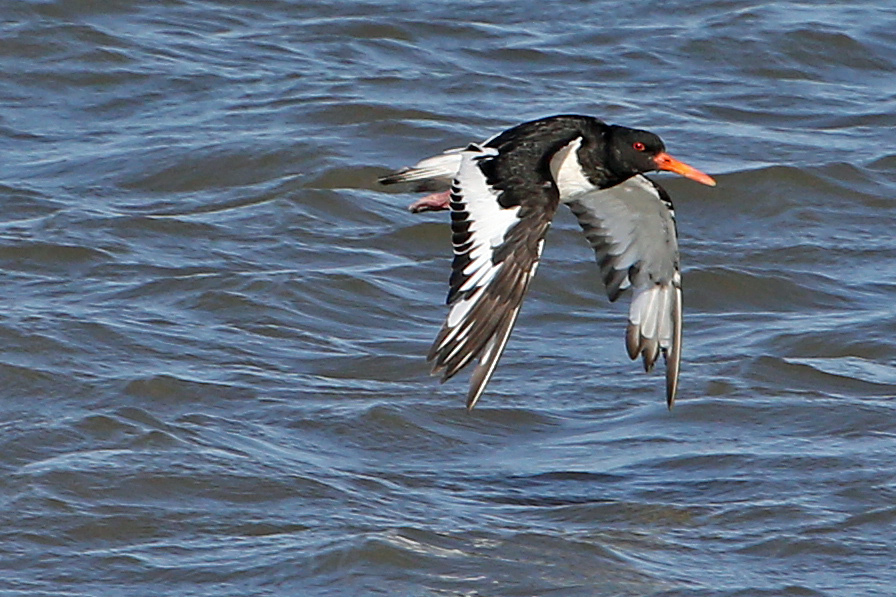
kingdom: Animalia
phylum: Chordata
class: Aves
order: Charadriiformes
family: Haematopodidae
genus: Haematopus
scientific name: Haematopus ostralegus
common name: Eurasian oystercatcher
